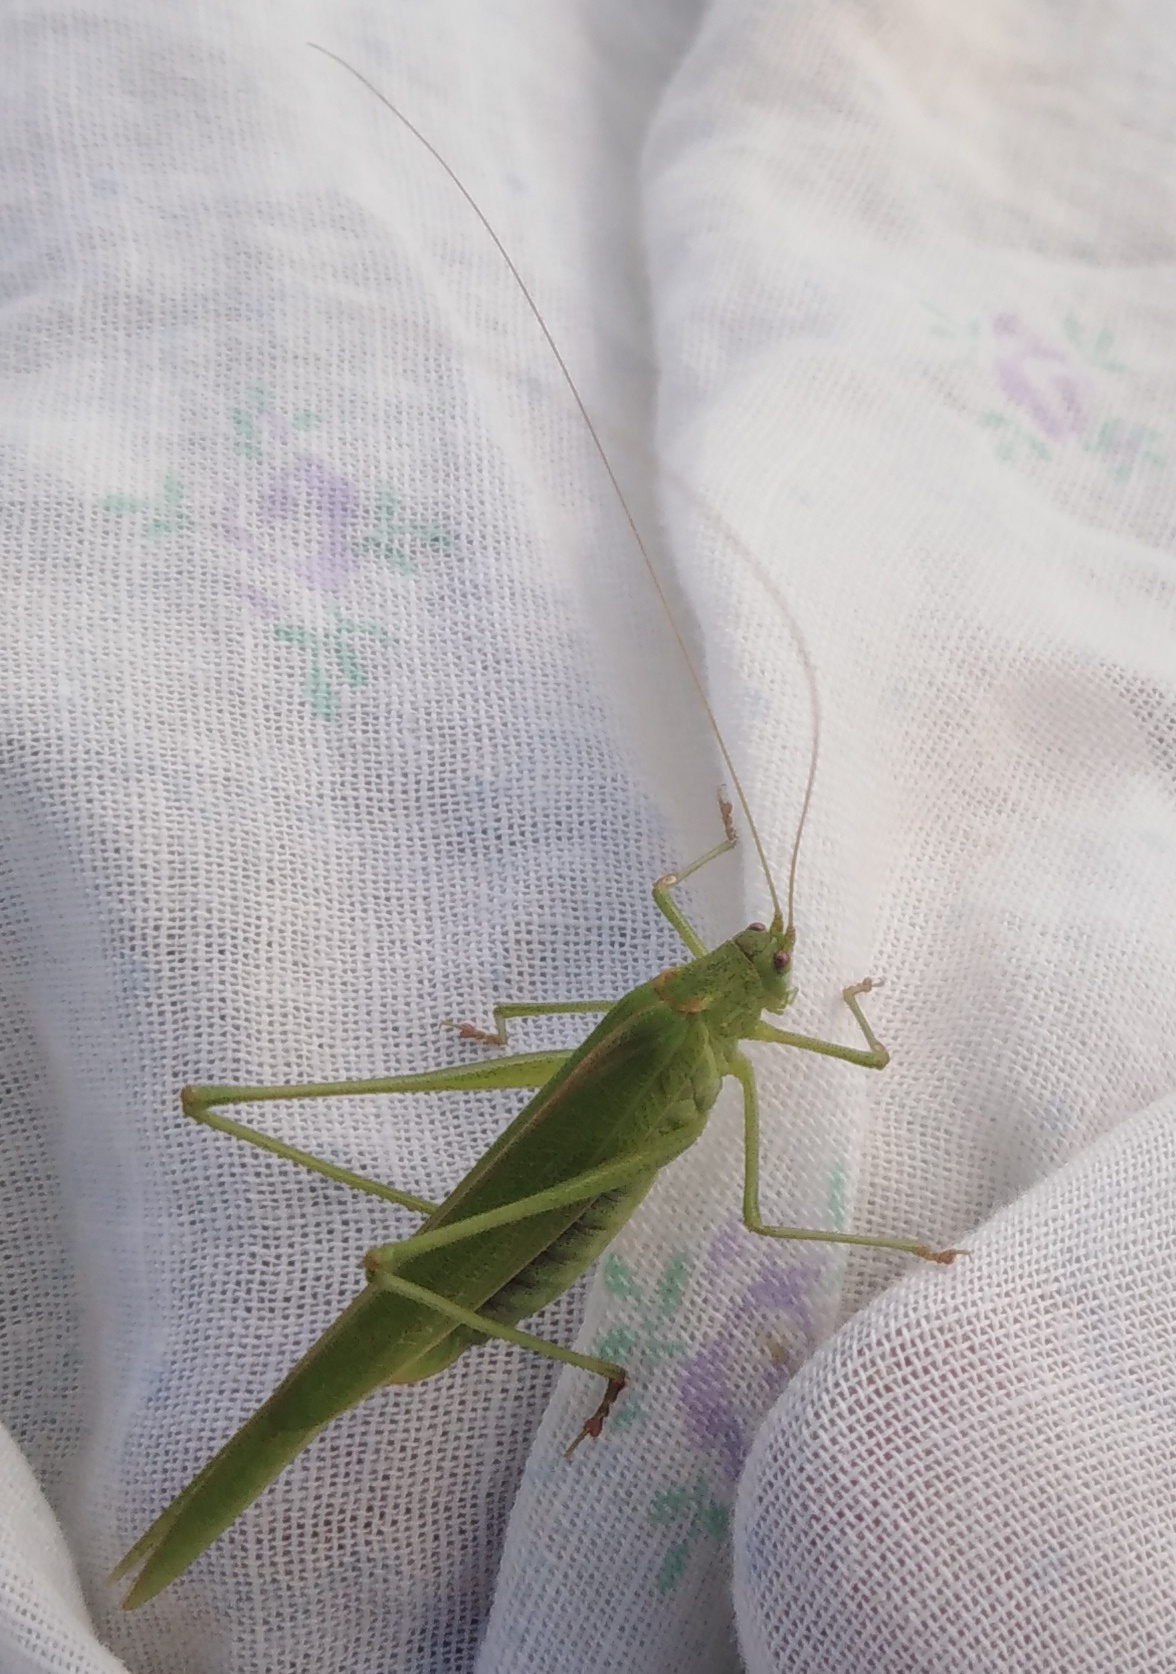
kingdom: Animalia
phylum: Arthropoda
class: Insecta
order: Orthoptera
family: Tettigoniidae
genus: Phaneroptera
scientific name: Phaneroptera falcata
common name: Sickle-bearing bush-cricket
